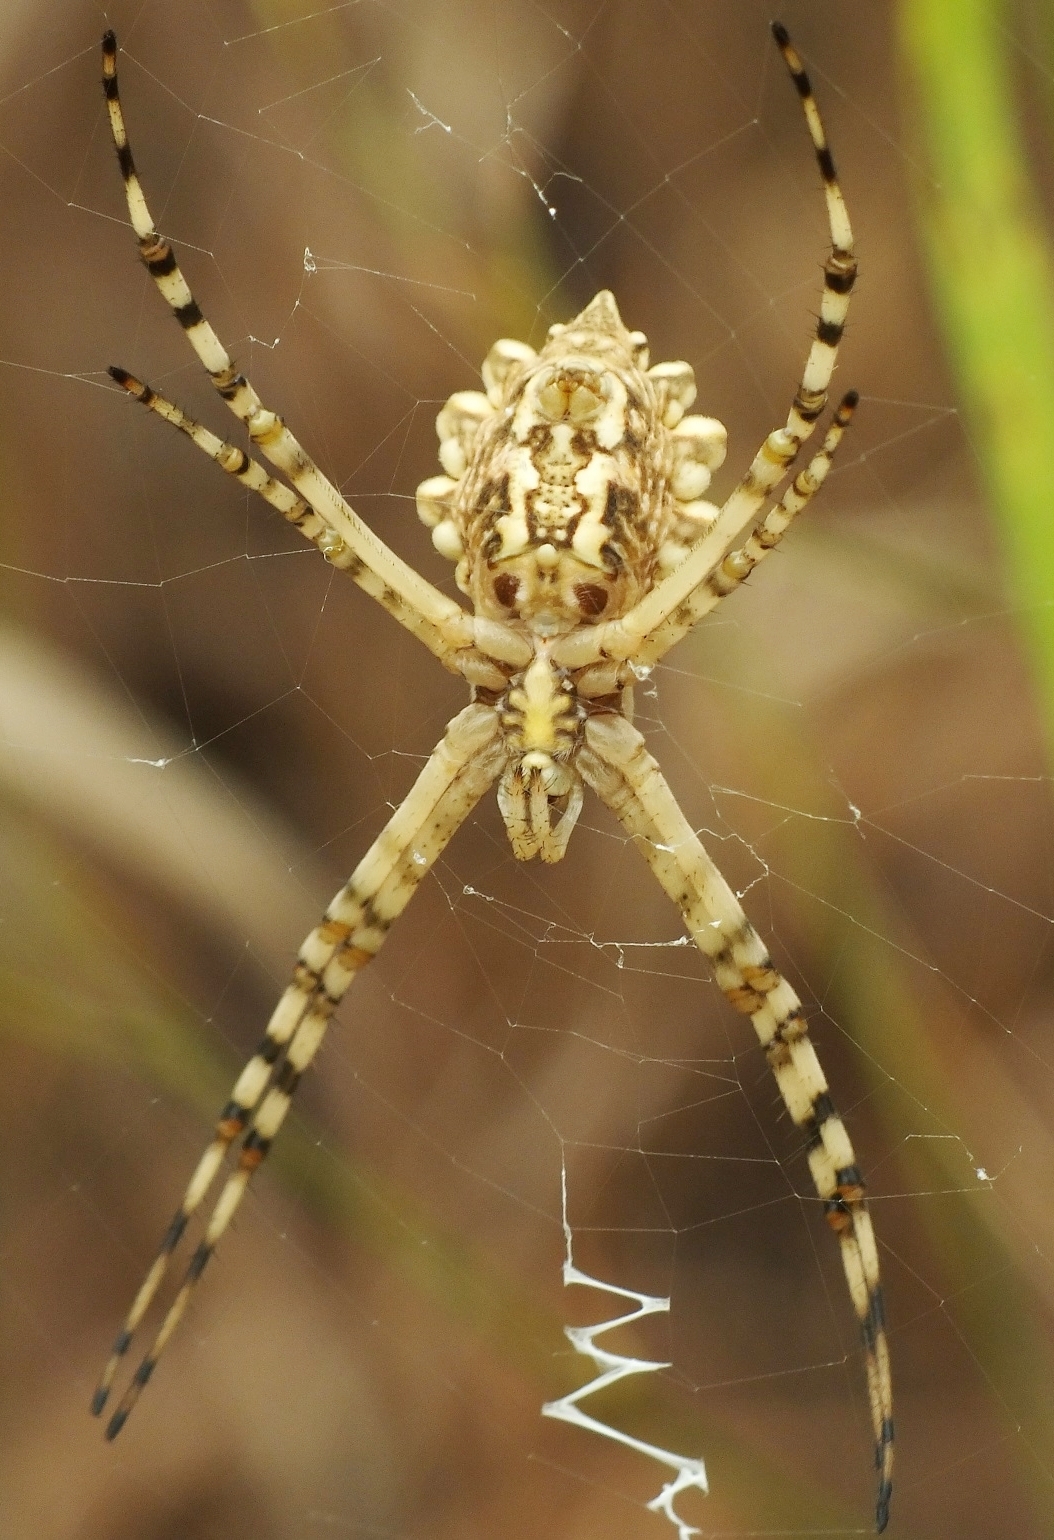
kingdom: Animalia
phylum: Arthropoda
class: Arachnida
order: Araneae
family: Araneidae
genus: Argiope
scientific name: Argiope lobata
